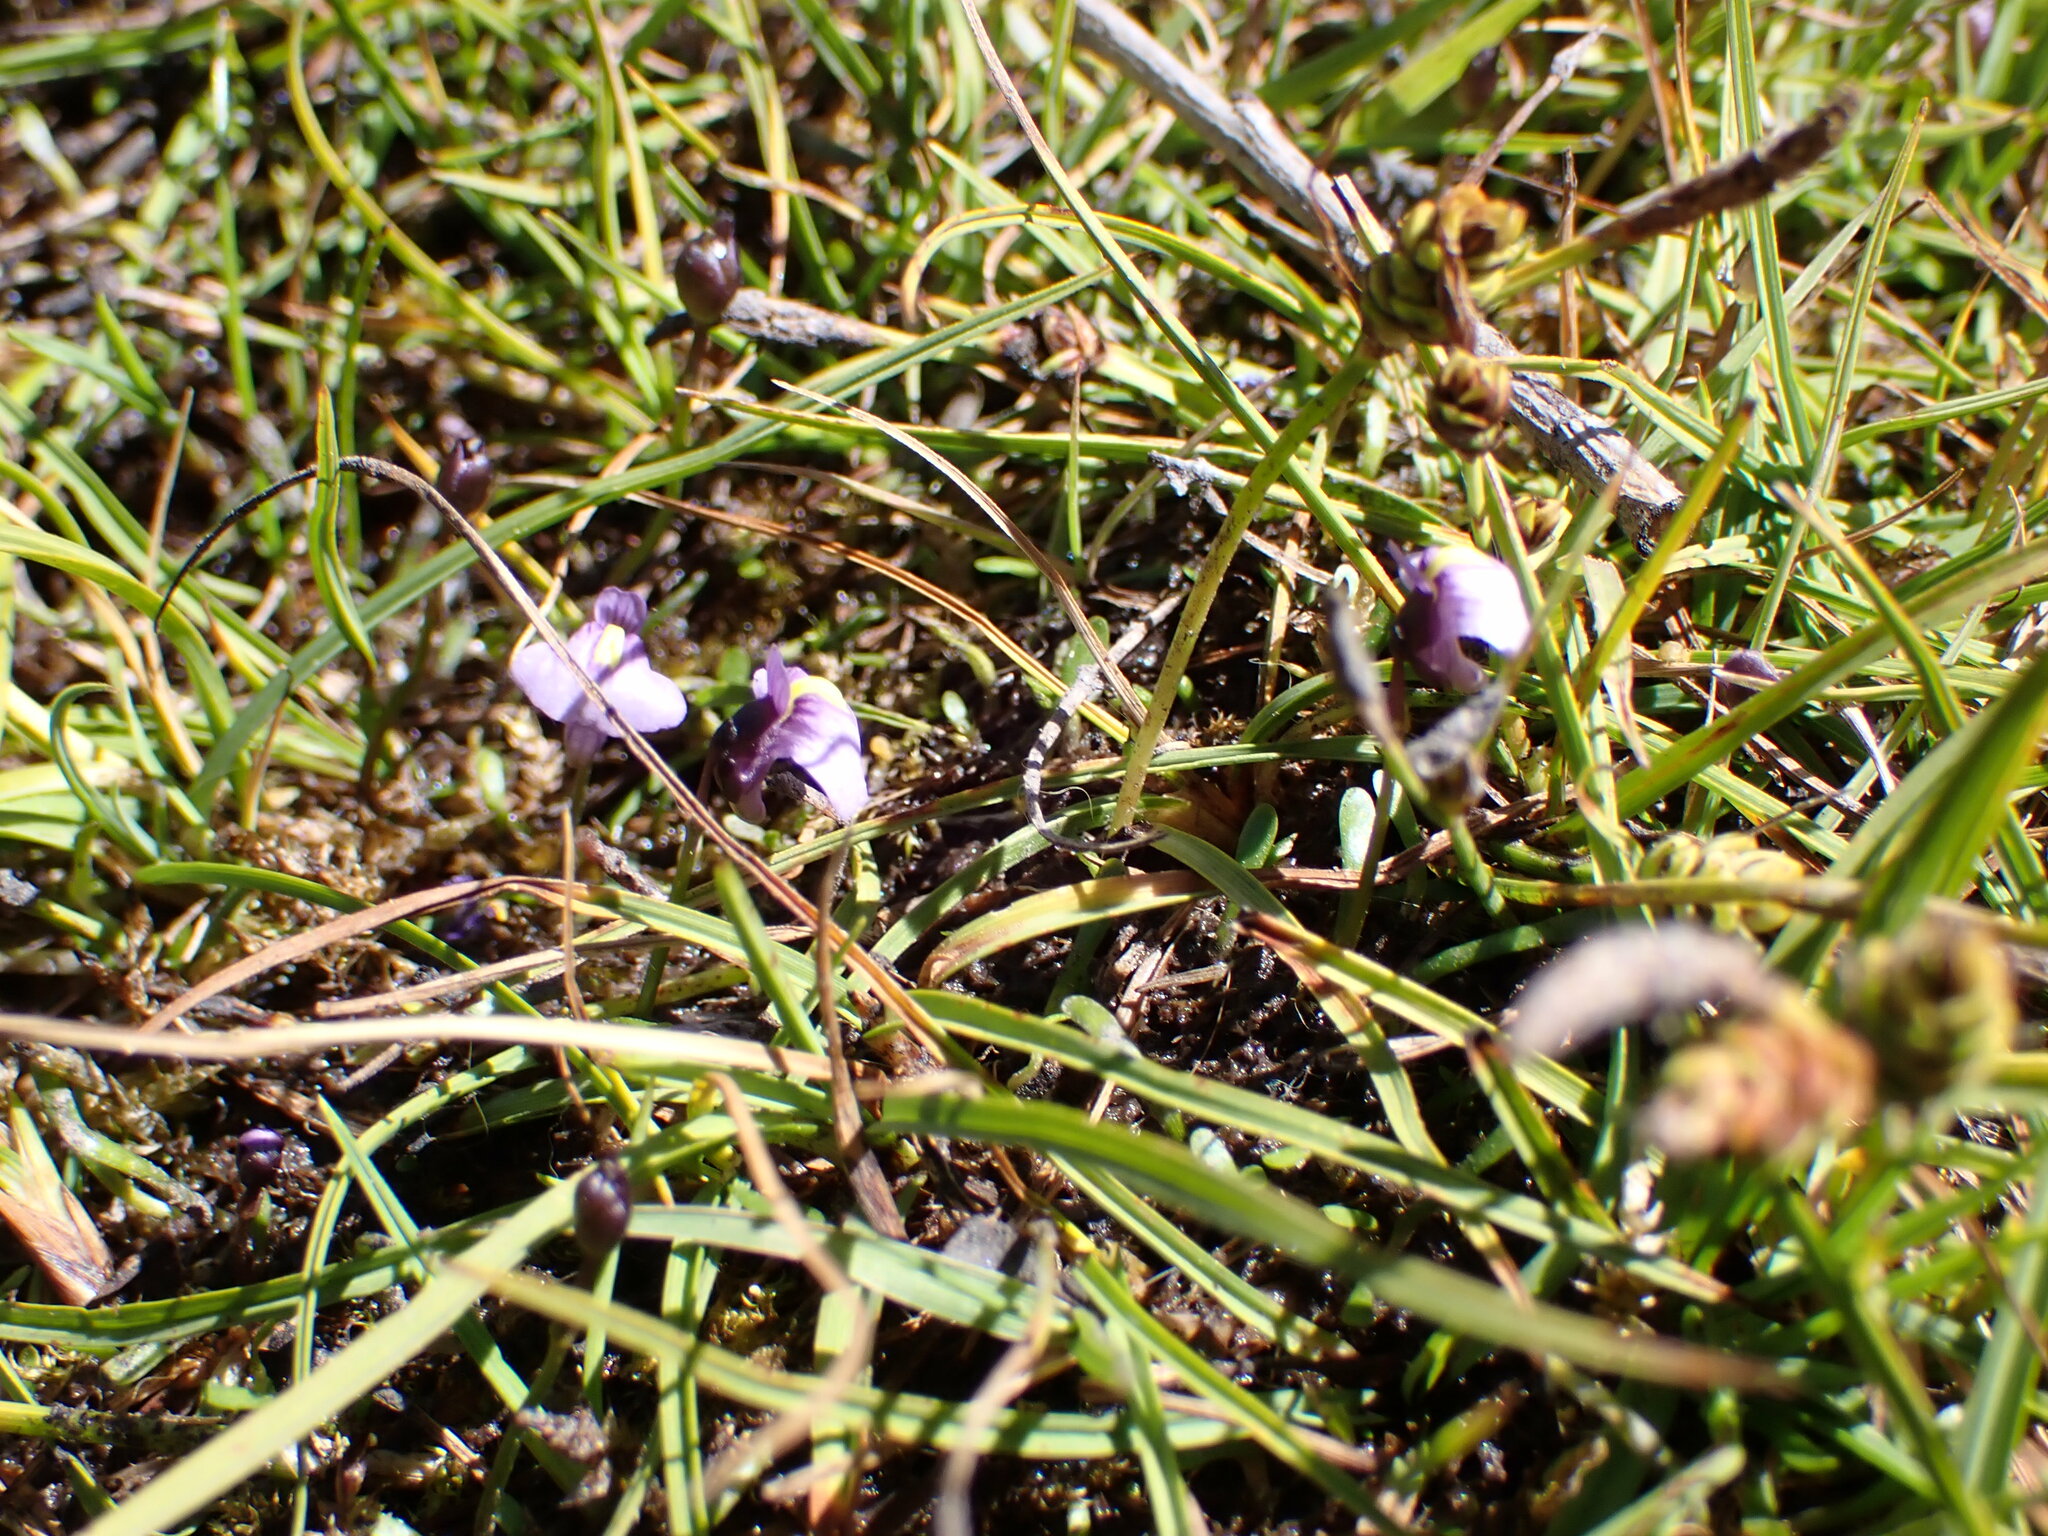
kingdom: Plantae
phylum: Tracheophyta
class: Magnoliopsida
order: Lamiales
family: Lentibulariaceae
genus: Utricularia
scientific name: Utricularia dichotoma
